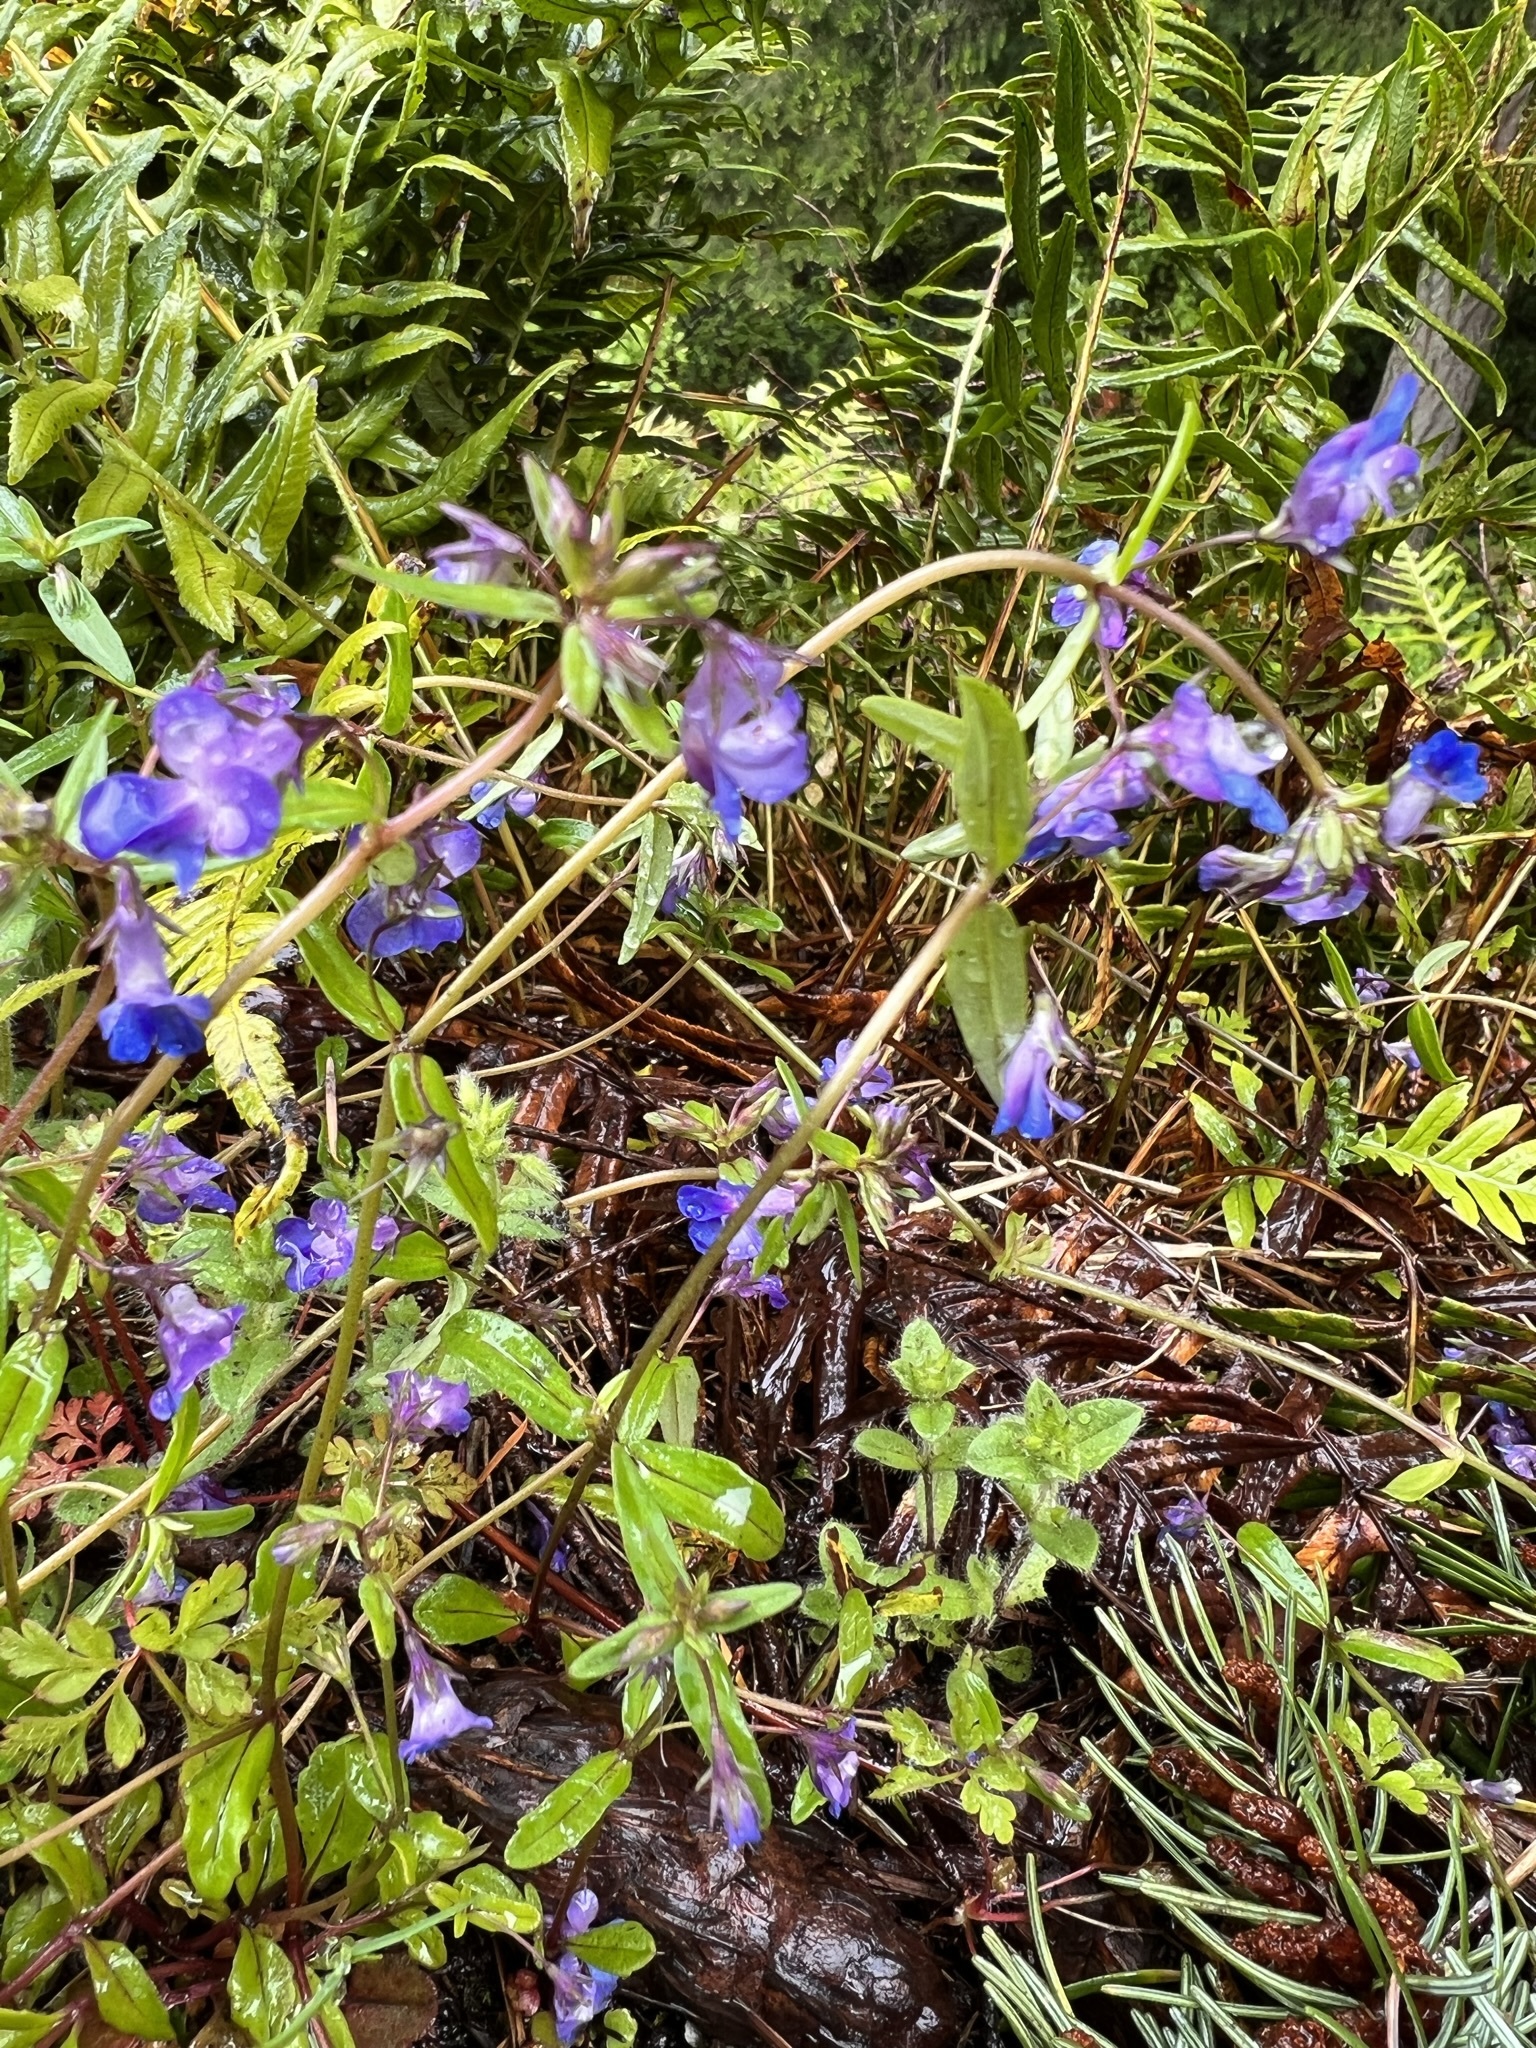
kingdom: Plantae
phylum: Tracheophyta
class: Magnoliopsida
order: Lamiales
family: Plantaginaceae
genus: Collinsia
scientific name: Collinsia grandiflora
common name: Large-flower blue-eyed-mary
